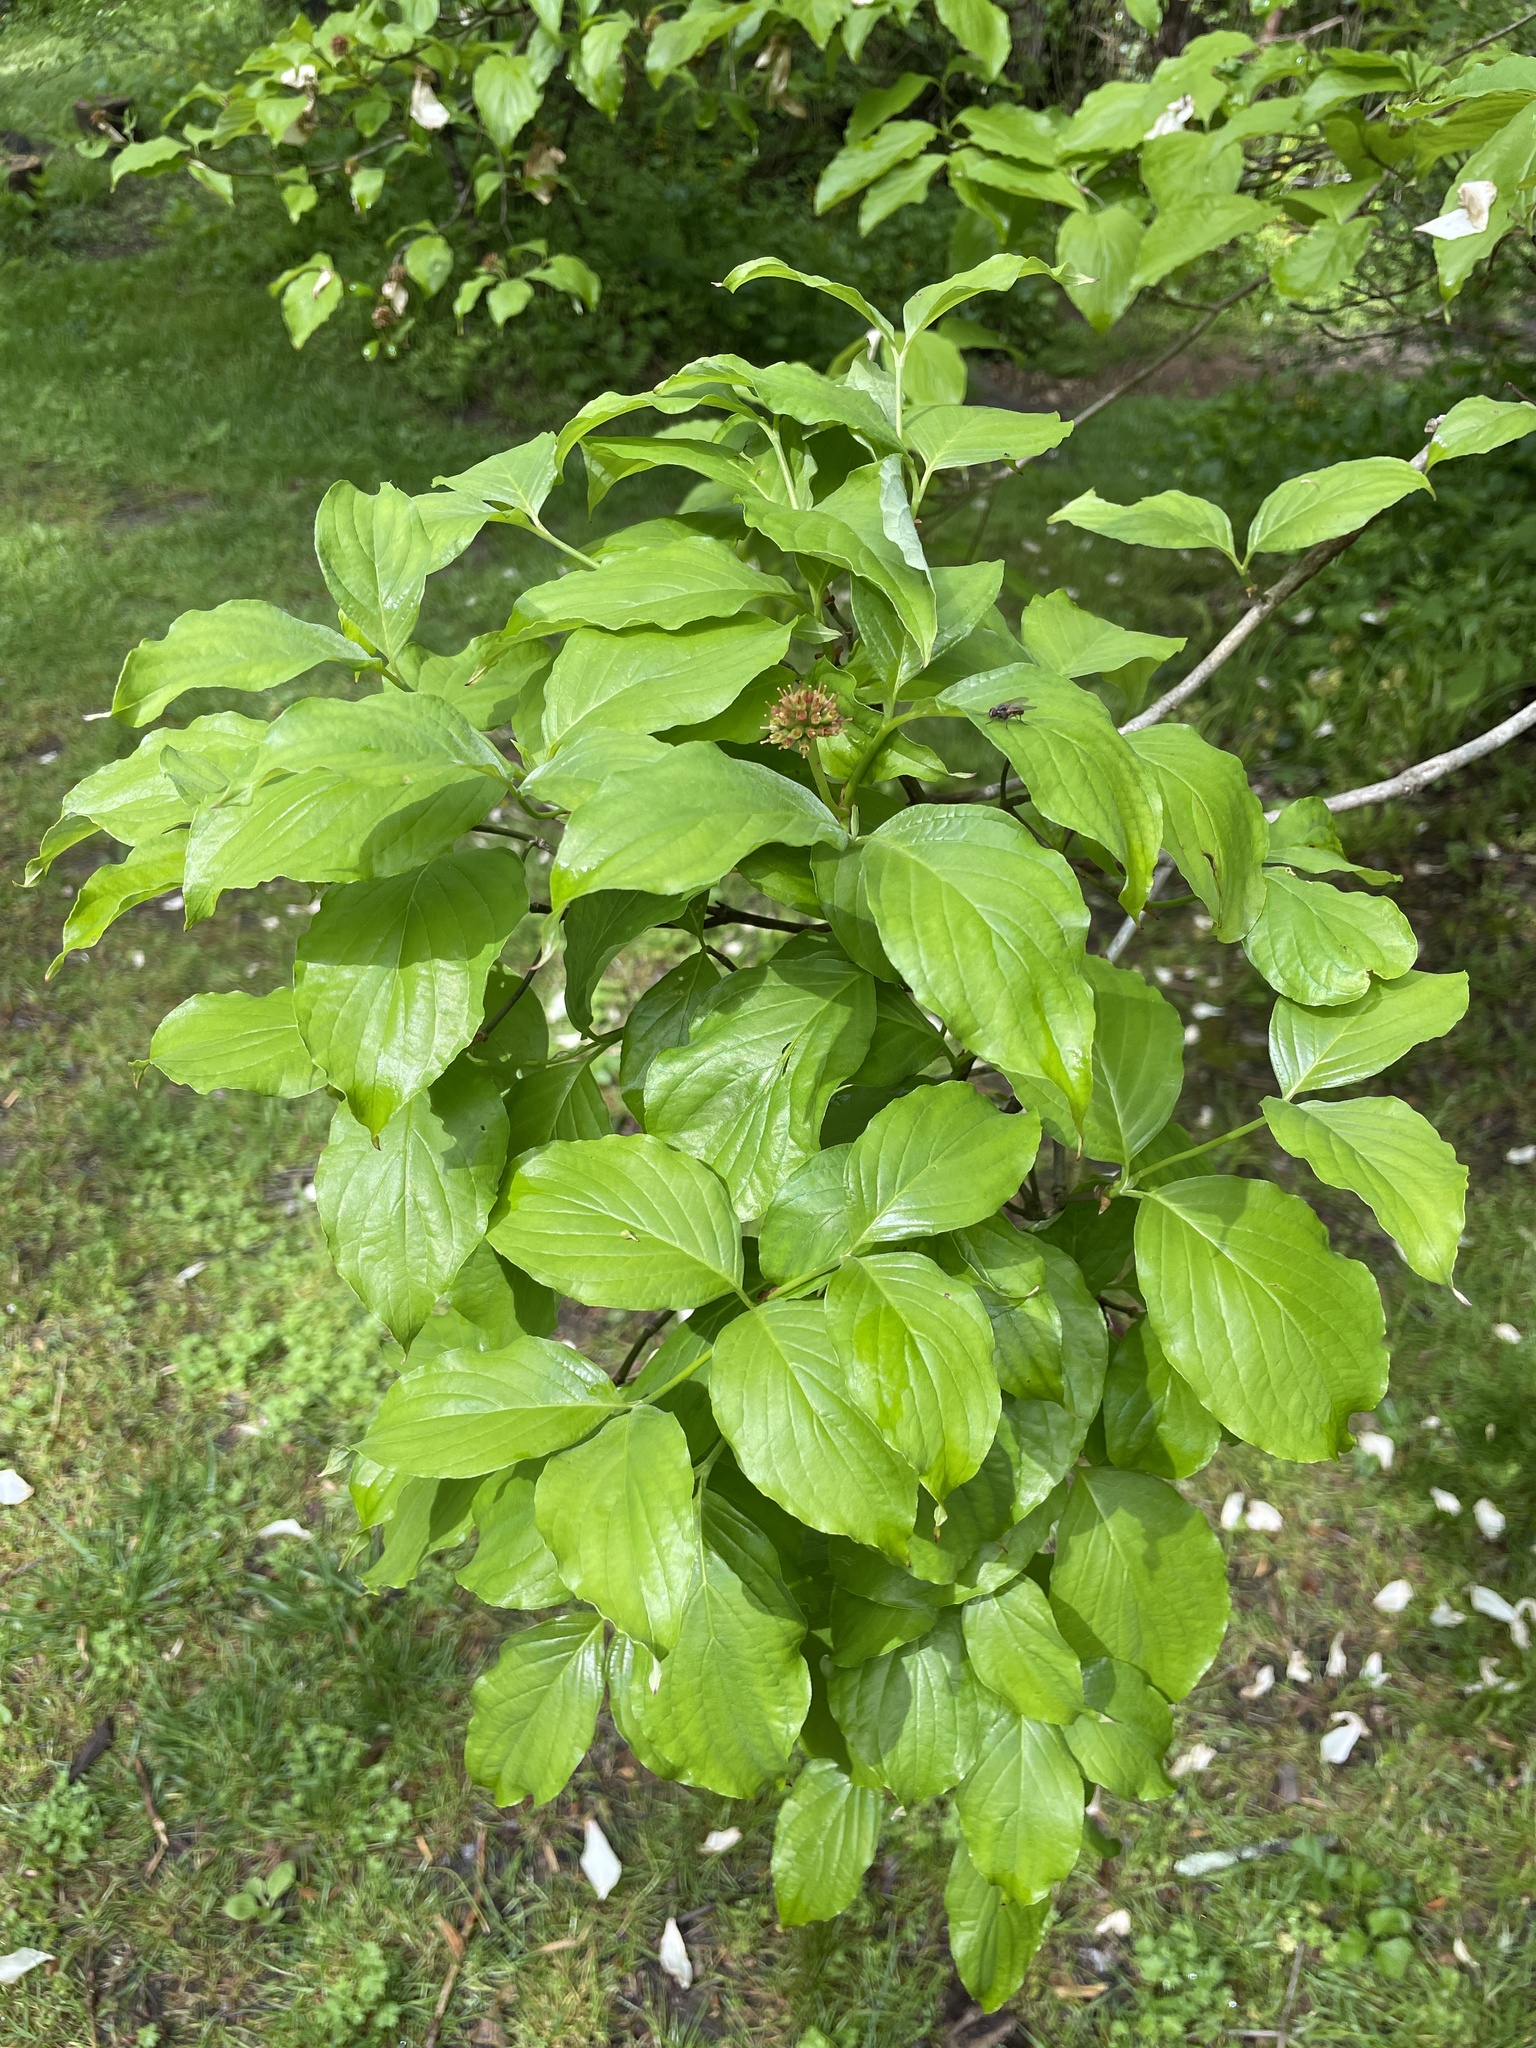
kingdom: Plantae
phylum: Tracheophyta
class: Magnoliopsida
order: Cornales
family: Cornaceae
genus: Cornus
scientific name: Cornus florida
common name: Flowering dogwood
